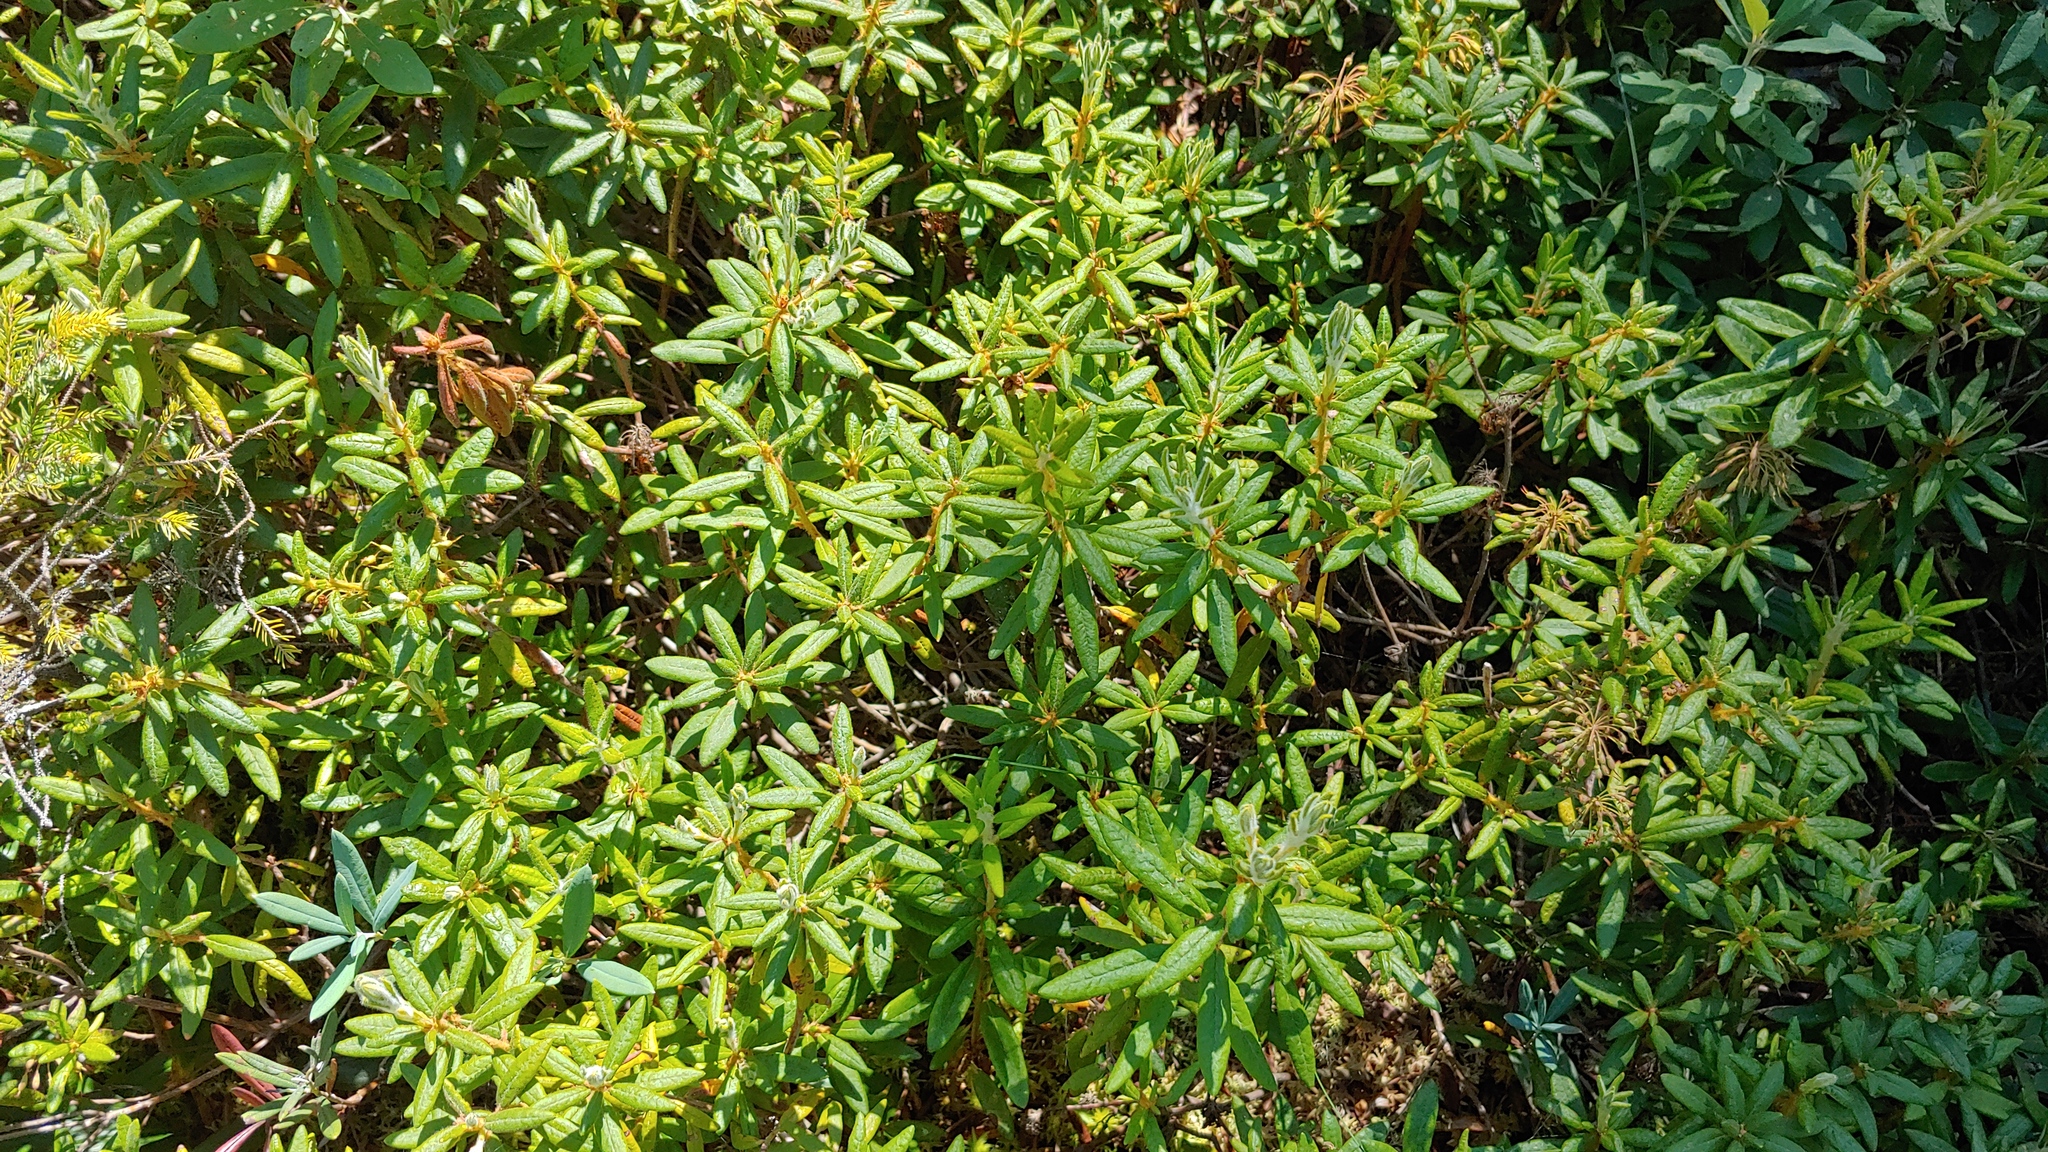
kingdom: Plantae
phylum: Tracheophyta
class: Magnoliopsida
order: Ericales
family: Ericaceae
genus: Rhododendron
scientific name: Rhododendron groenlandicum
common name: Bog labrador tea
